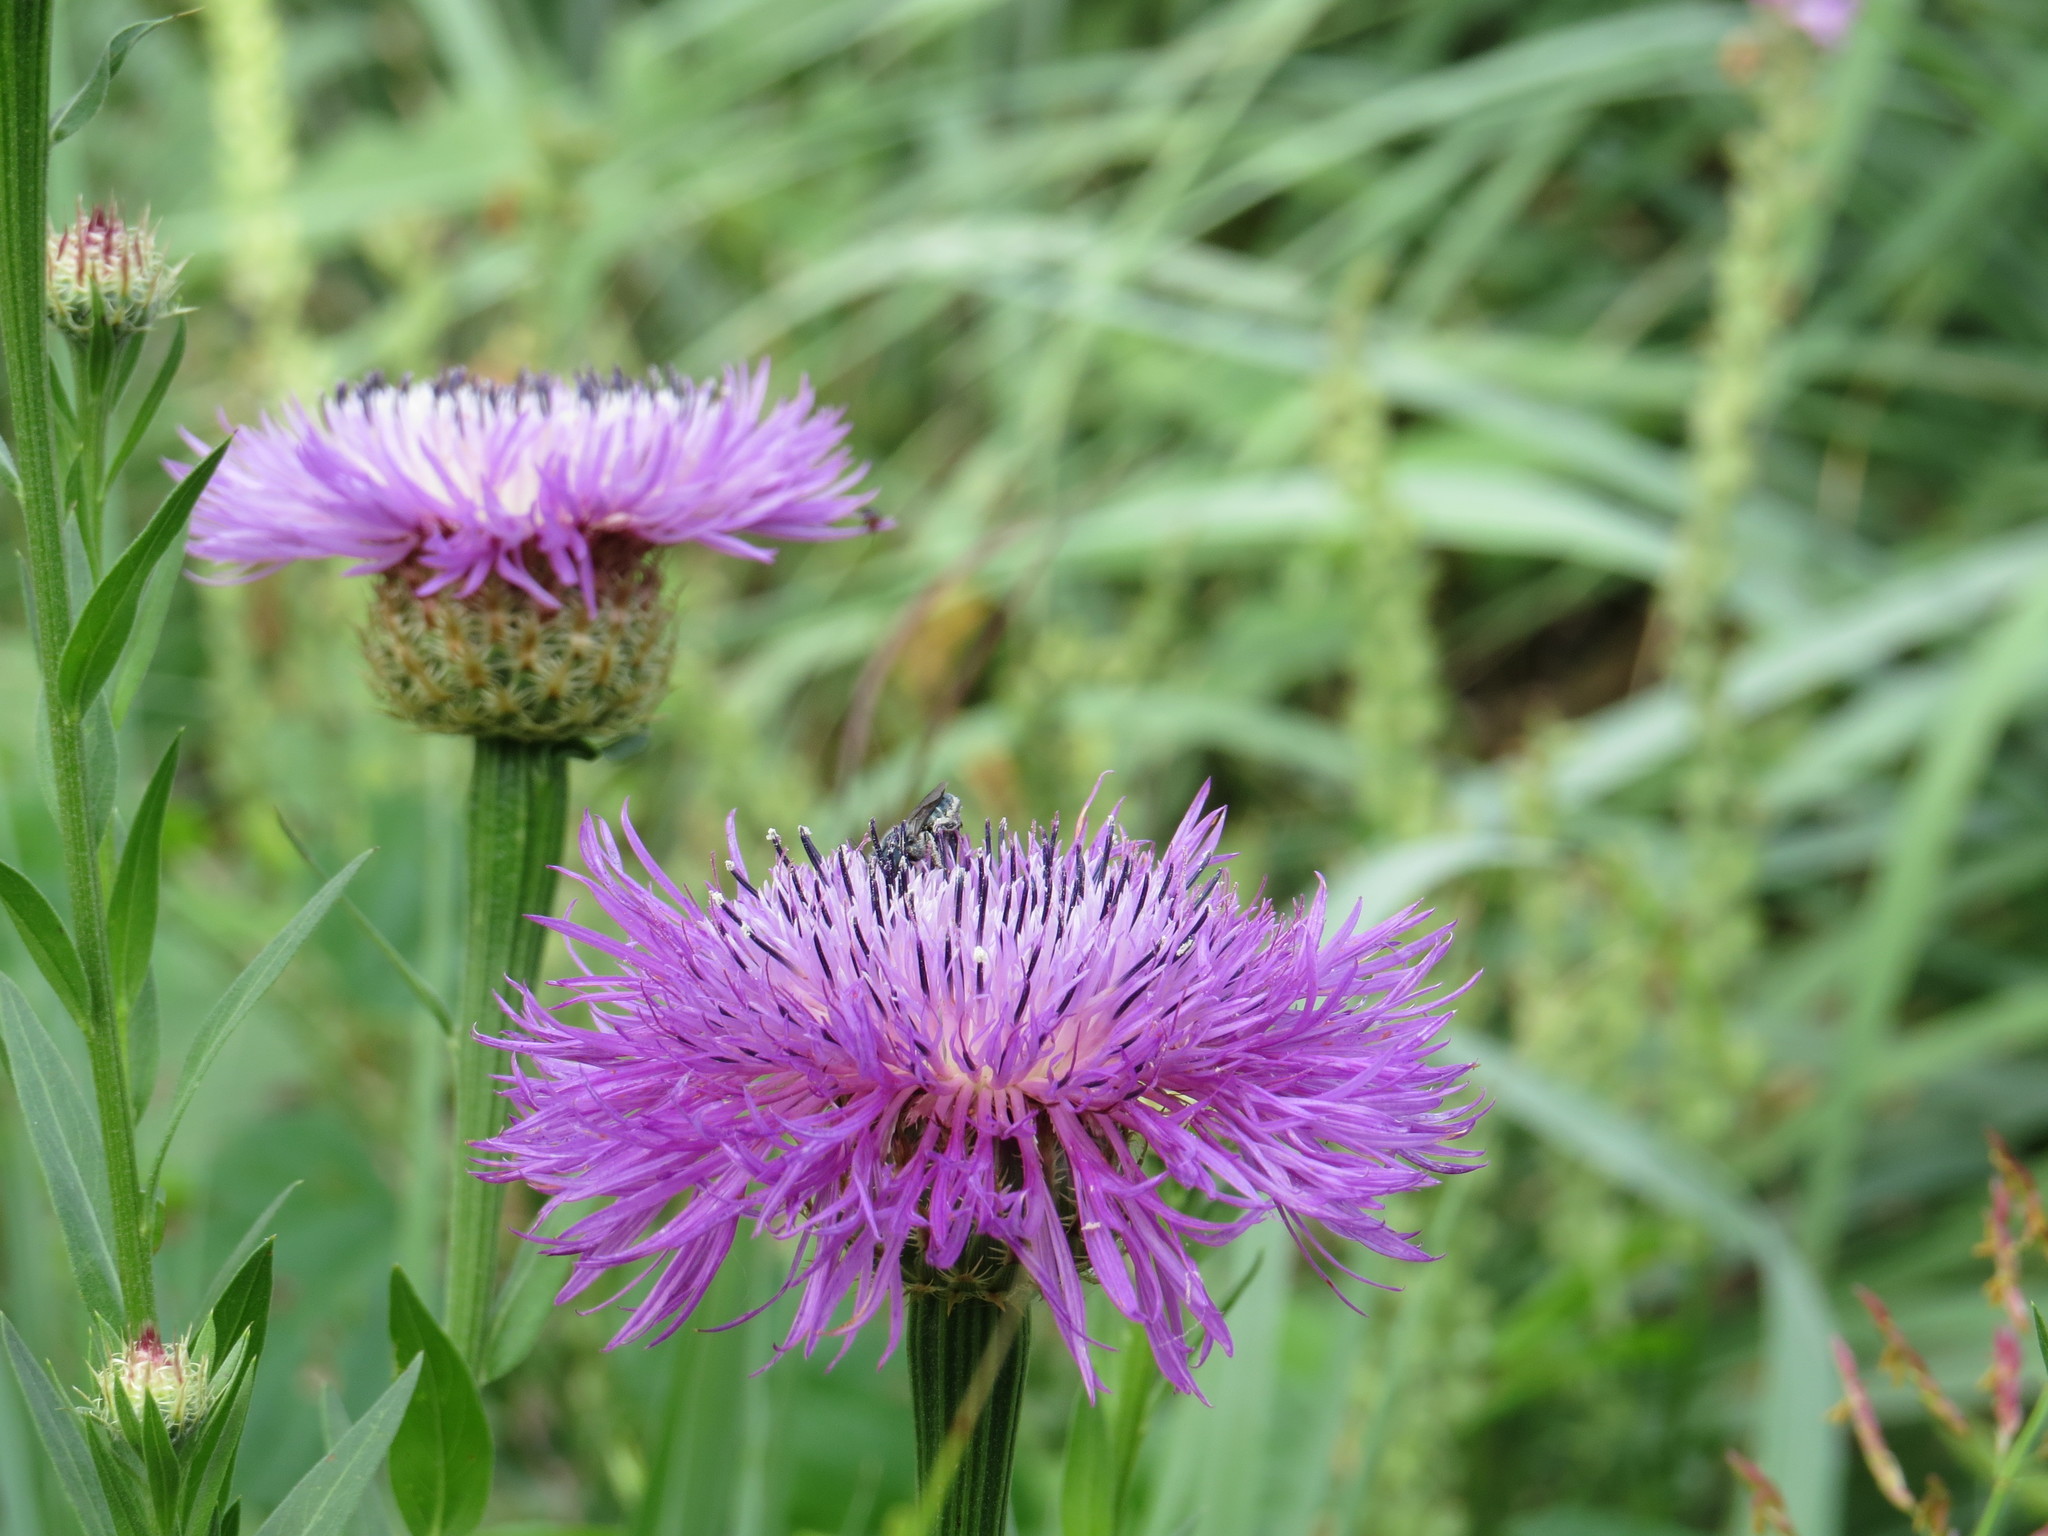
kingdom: Plantae
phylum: Tracheophyta
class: Magnoliopsida
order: Asterales
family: Asteraceae
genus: Plectocephalus
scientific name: Plectocephalus americanus
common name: American basket-flower
